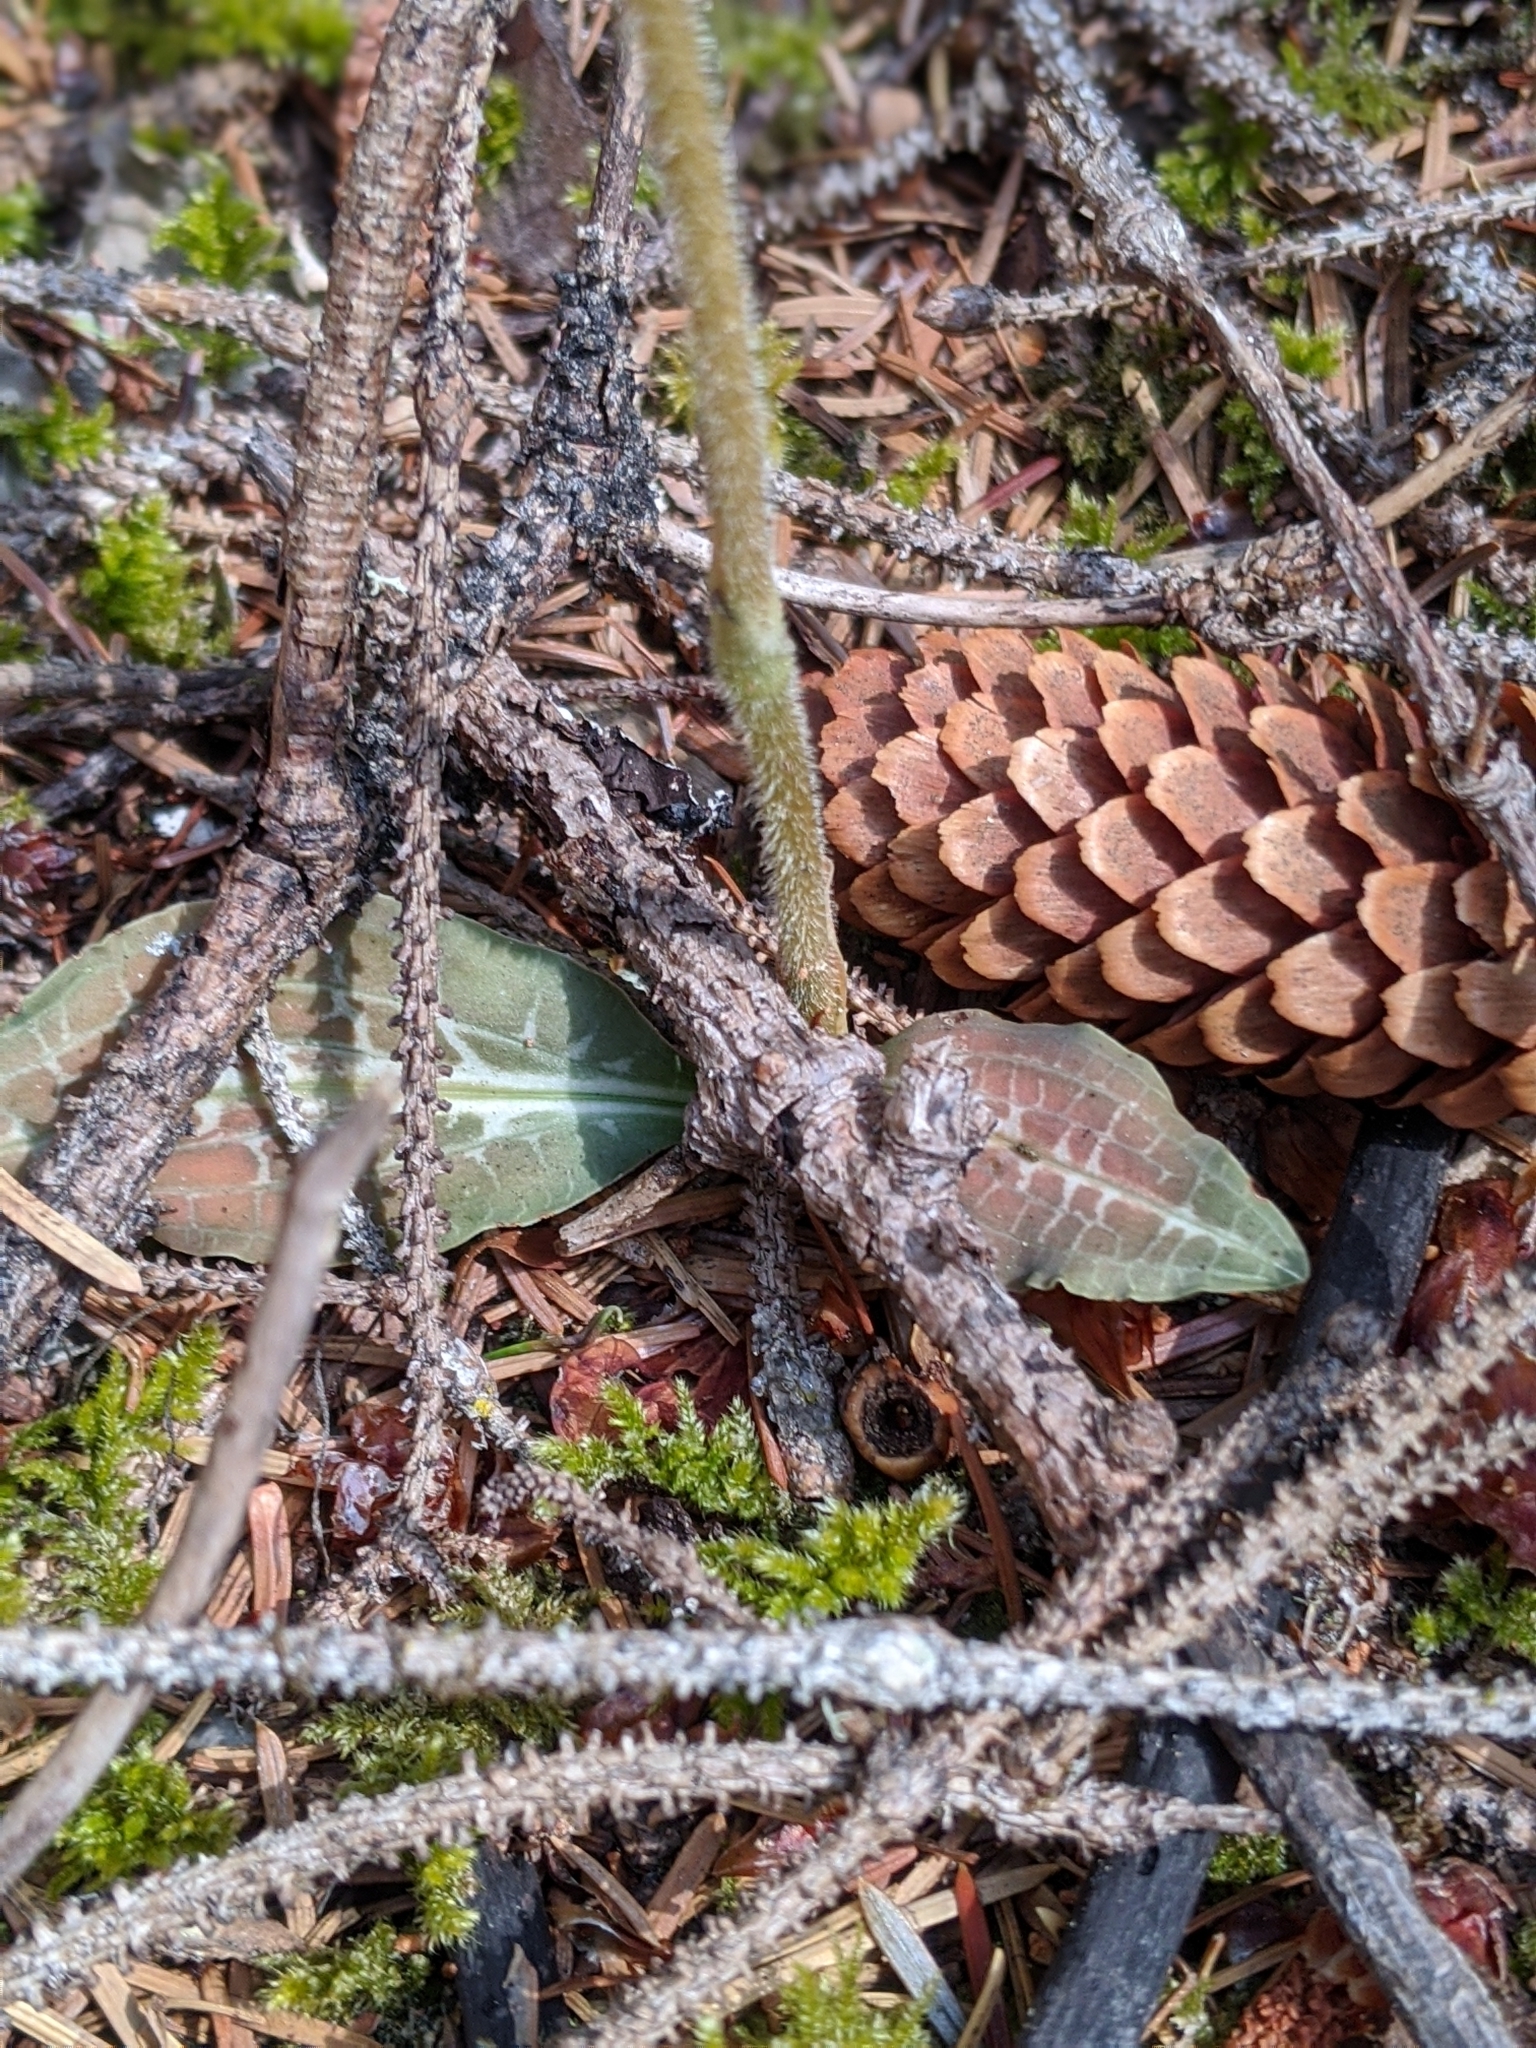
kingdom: Plantae
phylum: Tracheophyta
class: Liliopsida
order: Asparagales
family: Orchidaceae
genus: Goodyera
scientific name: Goodyera oblongifolia
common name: Giant rattlesnake-plantain
